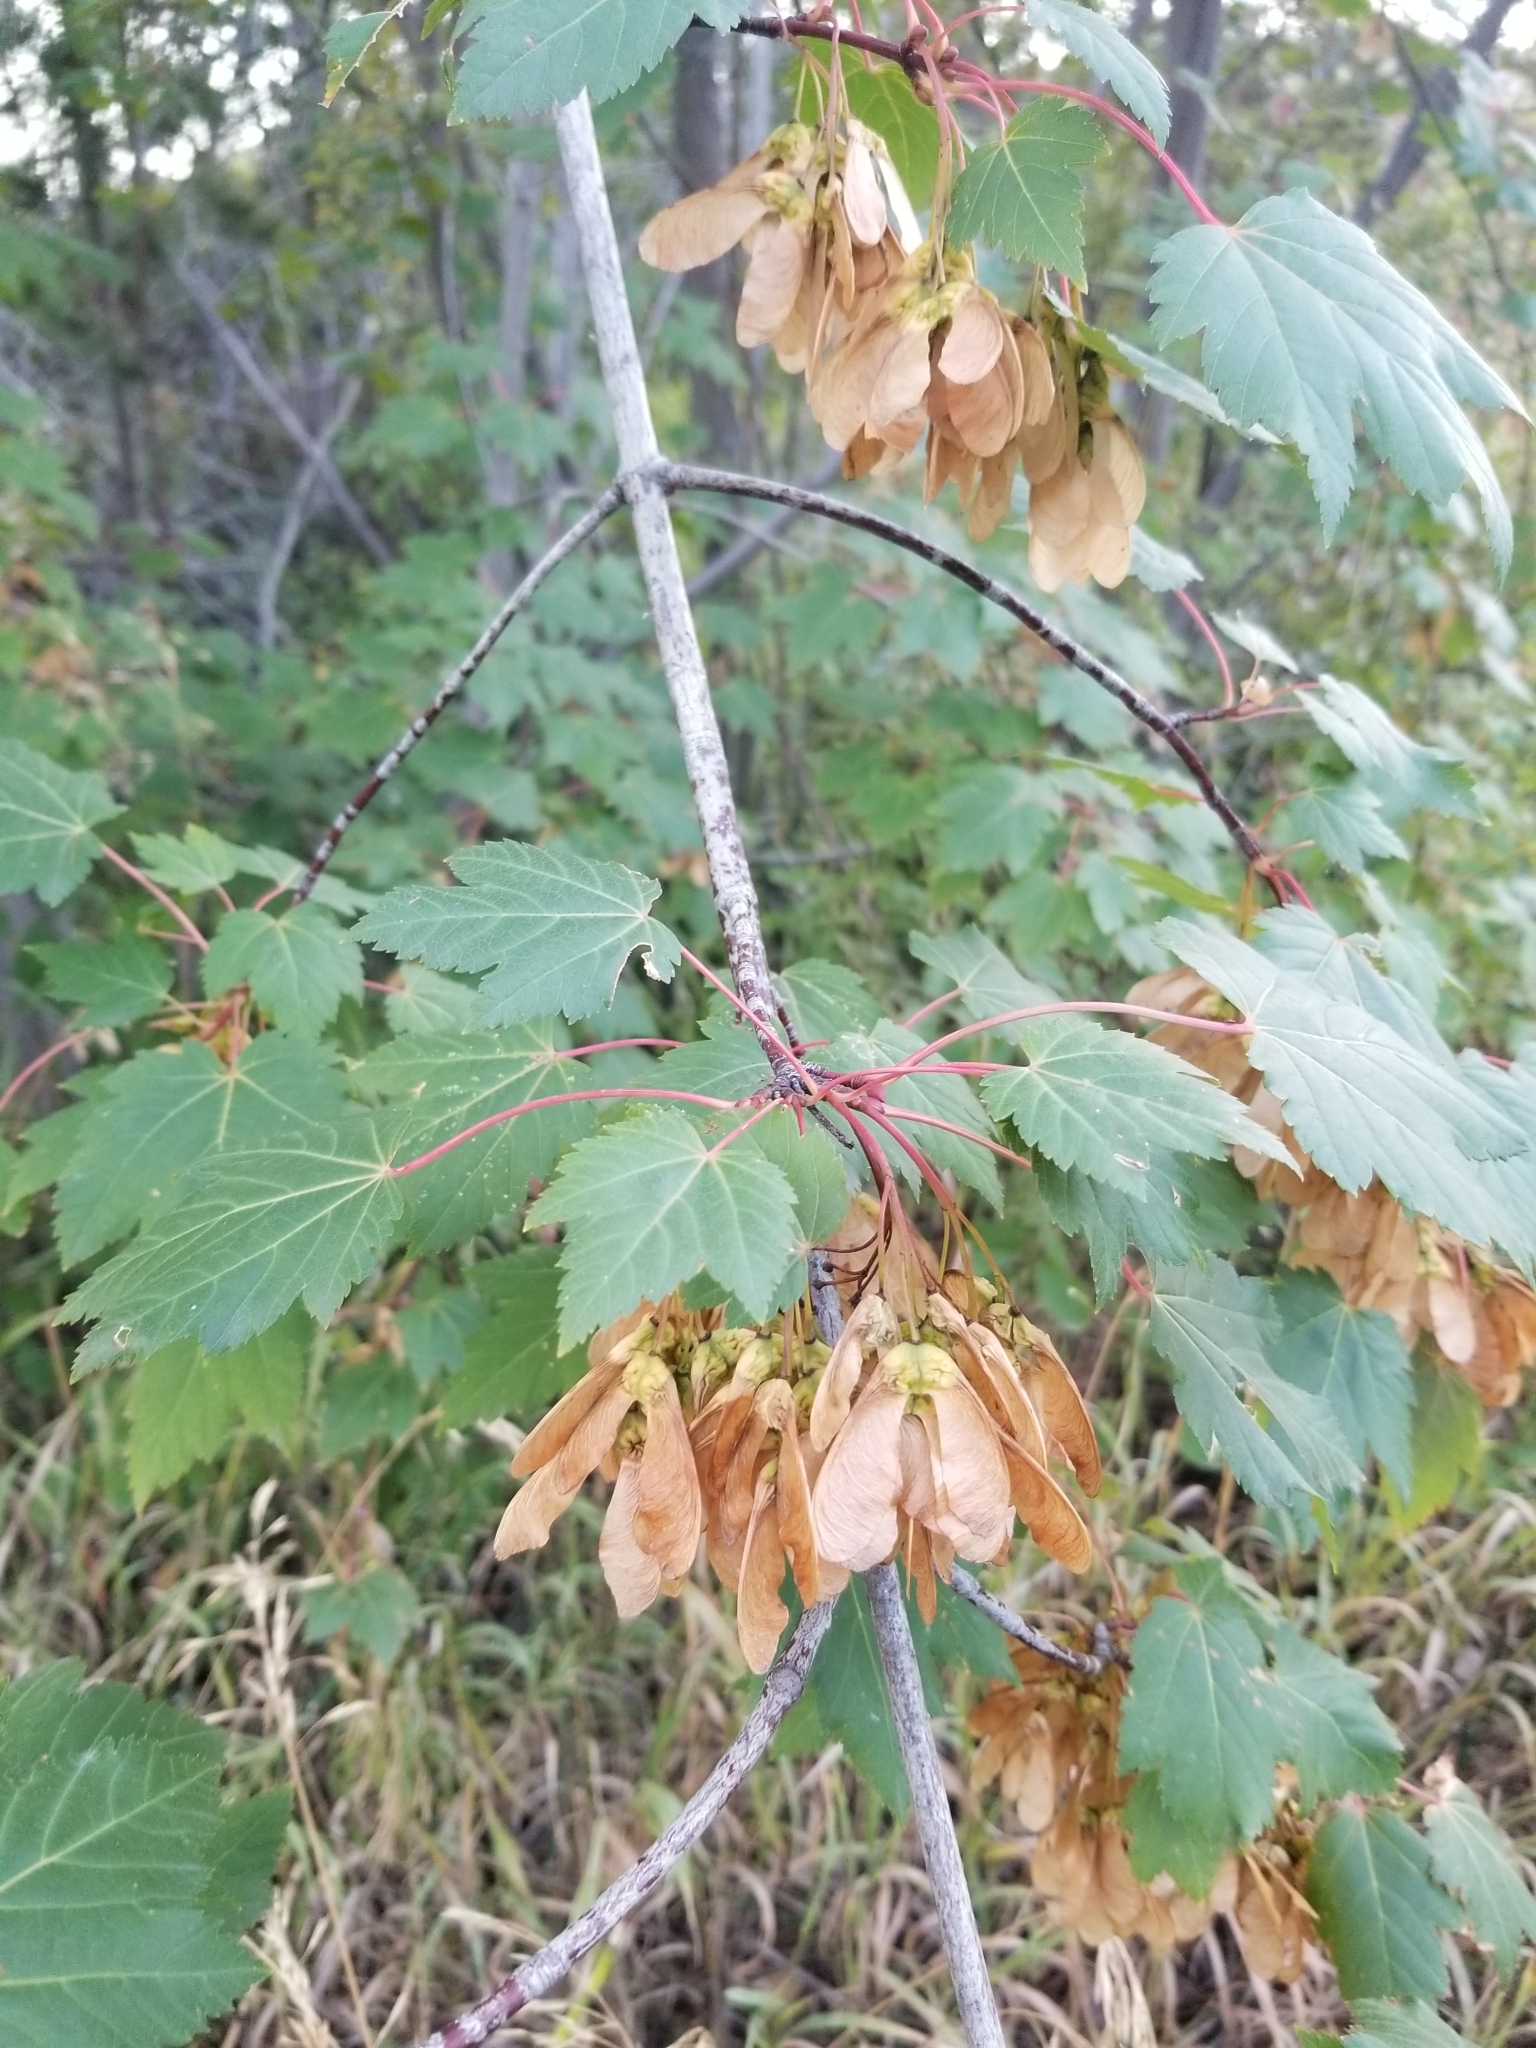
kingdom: Plantae
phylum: Tracheophyta
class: Magnoliopsida
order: Sapindales
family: Sapindaceae
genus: Acer
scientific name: Acer glabrum
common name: Rocky mountain maple
